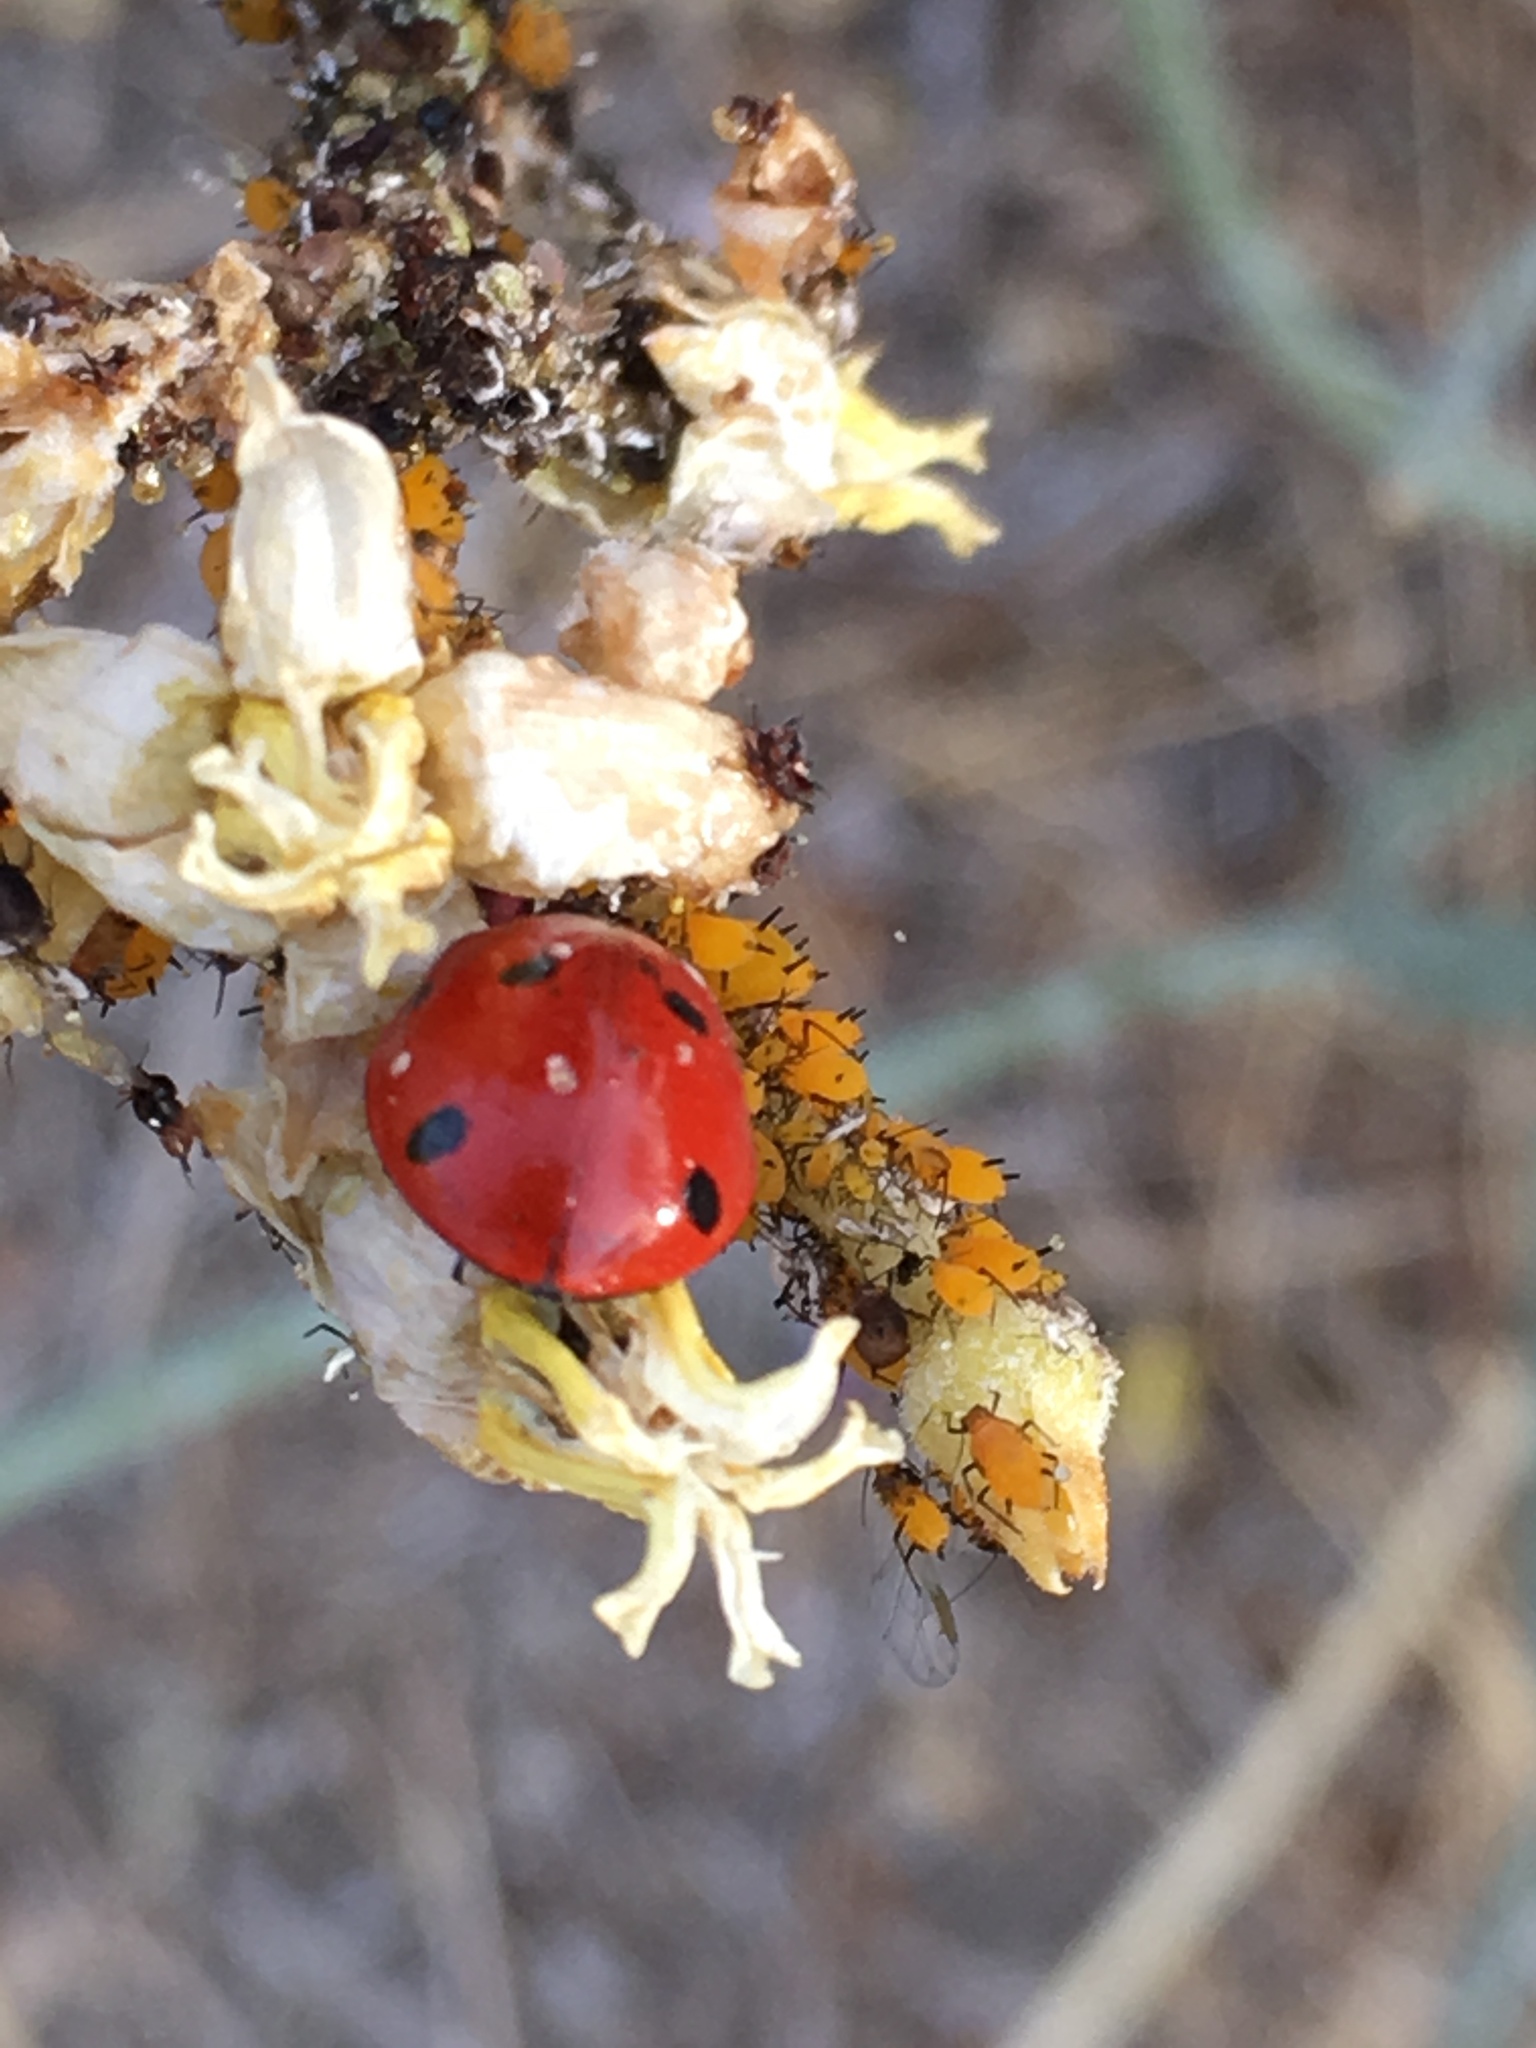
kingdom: Animalia
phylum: Arthropoda
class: Insecta
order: Coleoptera
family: Coccinellidae
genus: Coccinella
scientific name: Coccinella septempunctata
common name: Sevenspotted lady beetle
